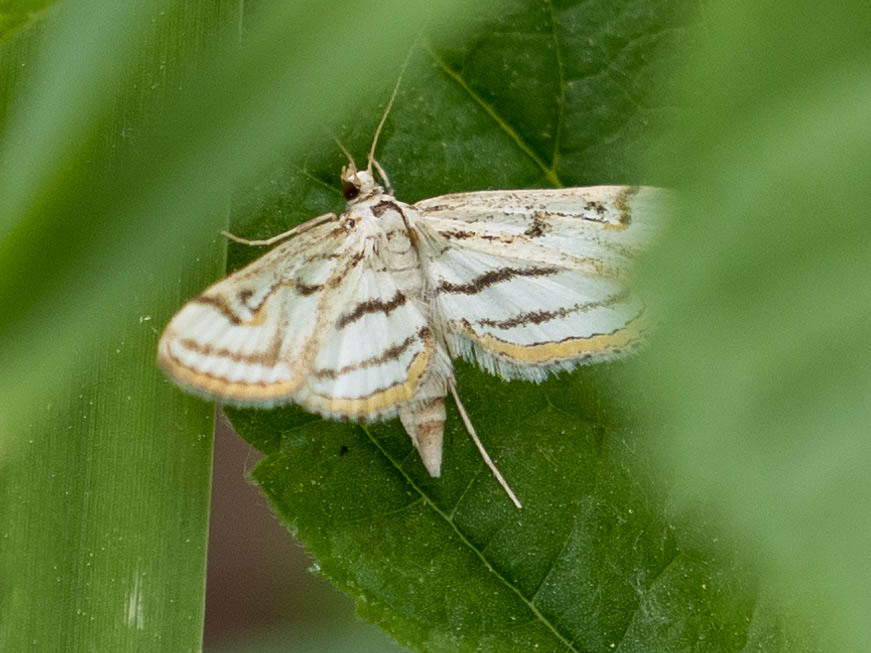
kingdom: Animalia
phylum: Arthropoda
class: Insecta
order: Lepidoptera
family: Crambidae
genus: Parapoynx
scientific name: Parapoynx badiusalis
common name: Chestnut-marked pondweed moth
